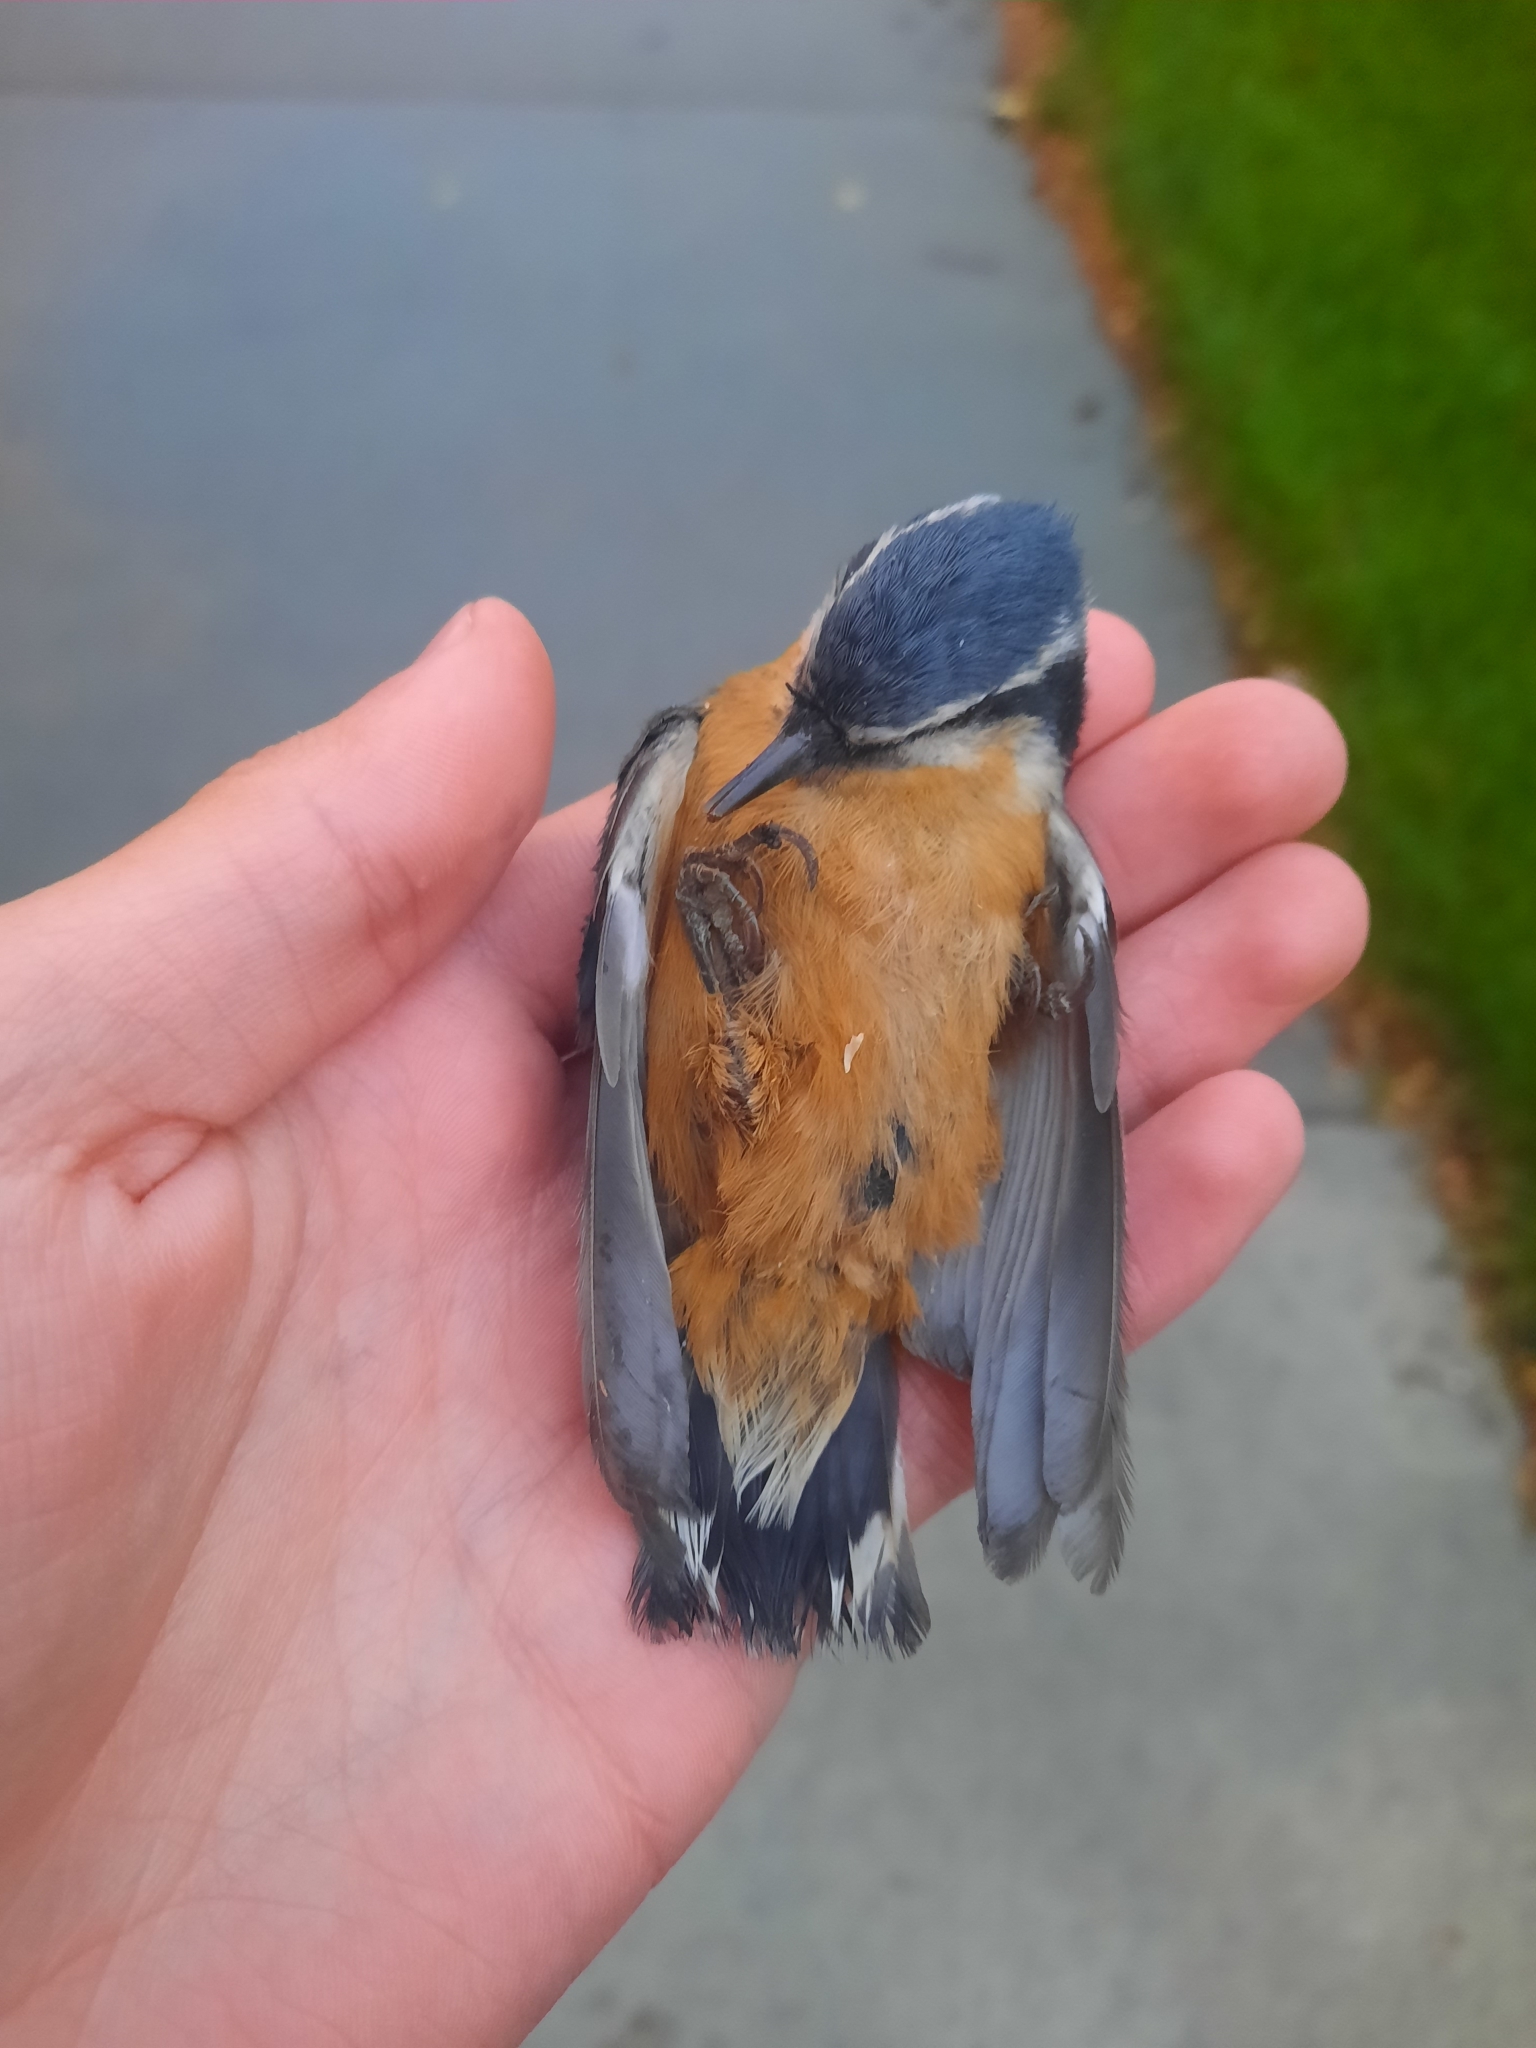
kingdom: Animalia
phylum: Chordata
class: Aves
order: Passeriformes
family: Sittidae
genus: Sitta
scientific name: Sitta canadensis
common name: Red-breasted nuthatch
